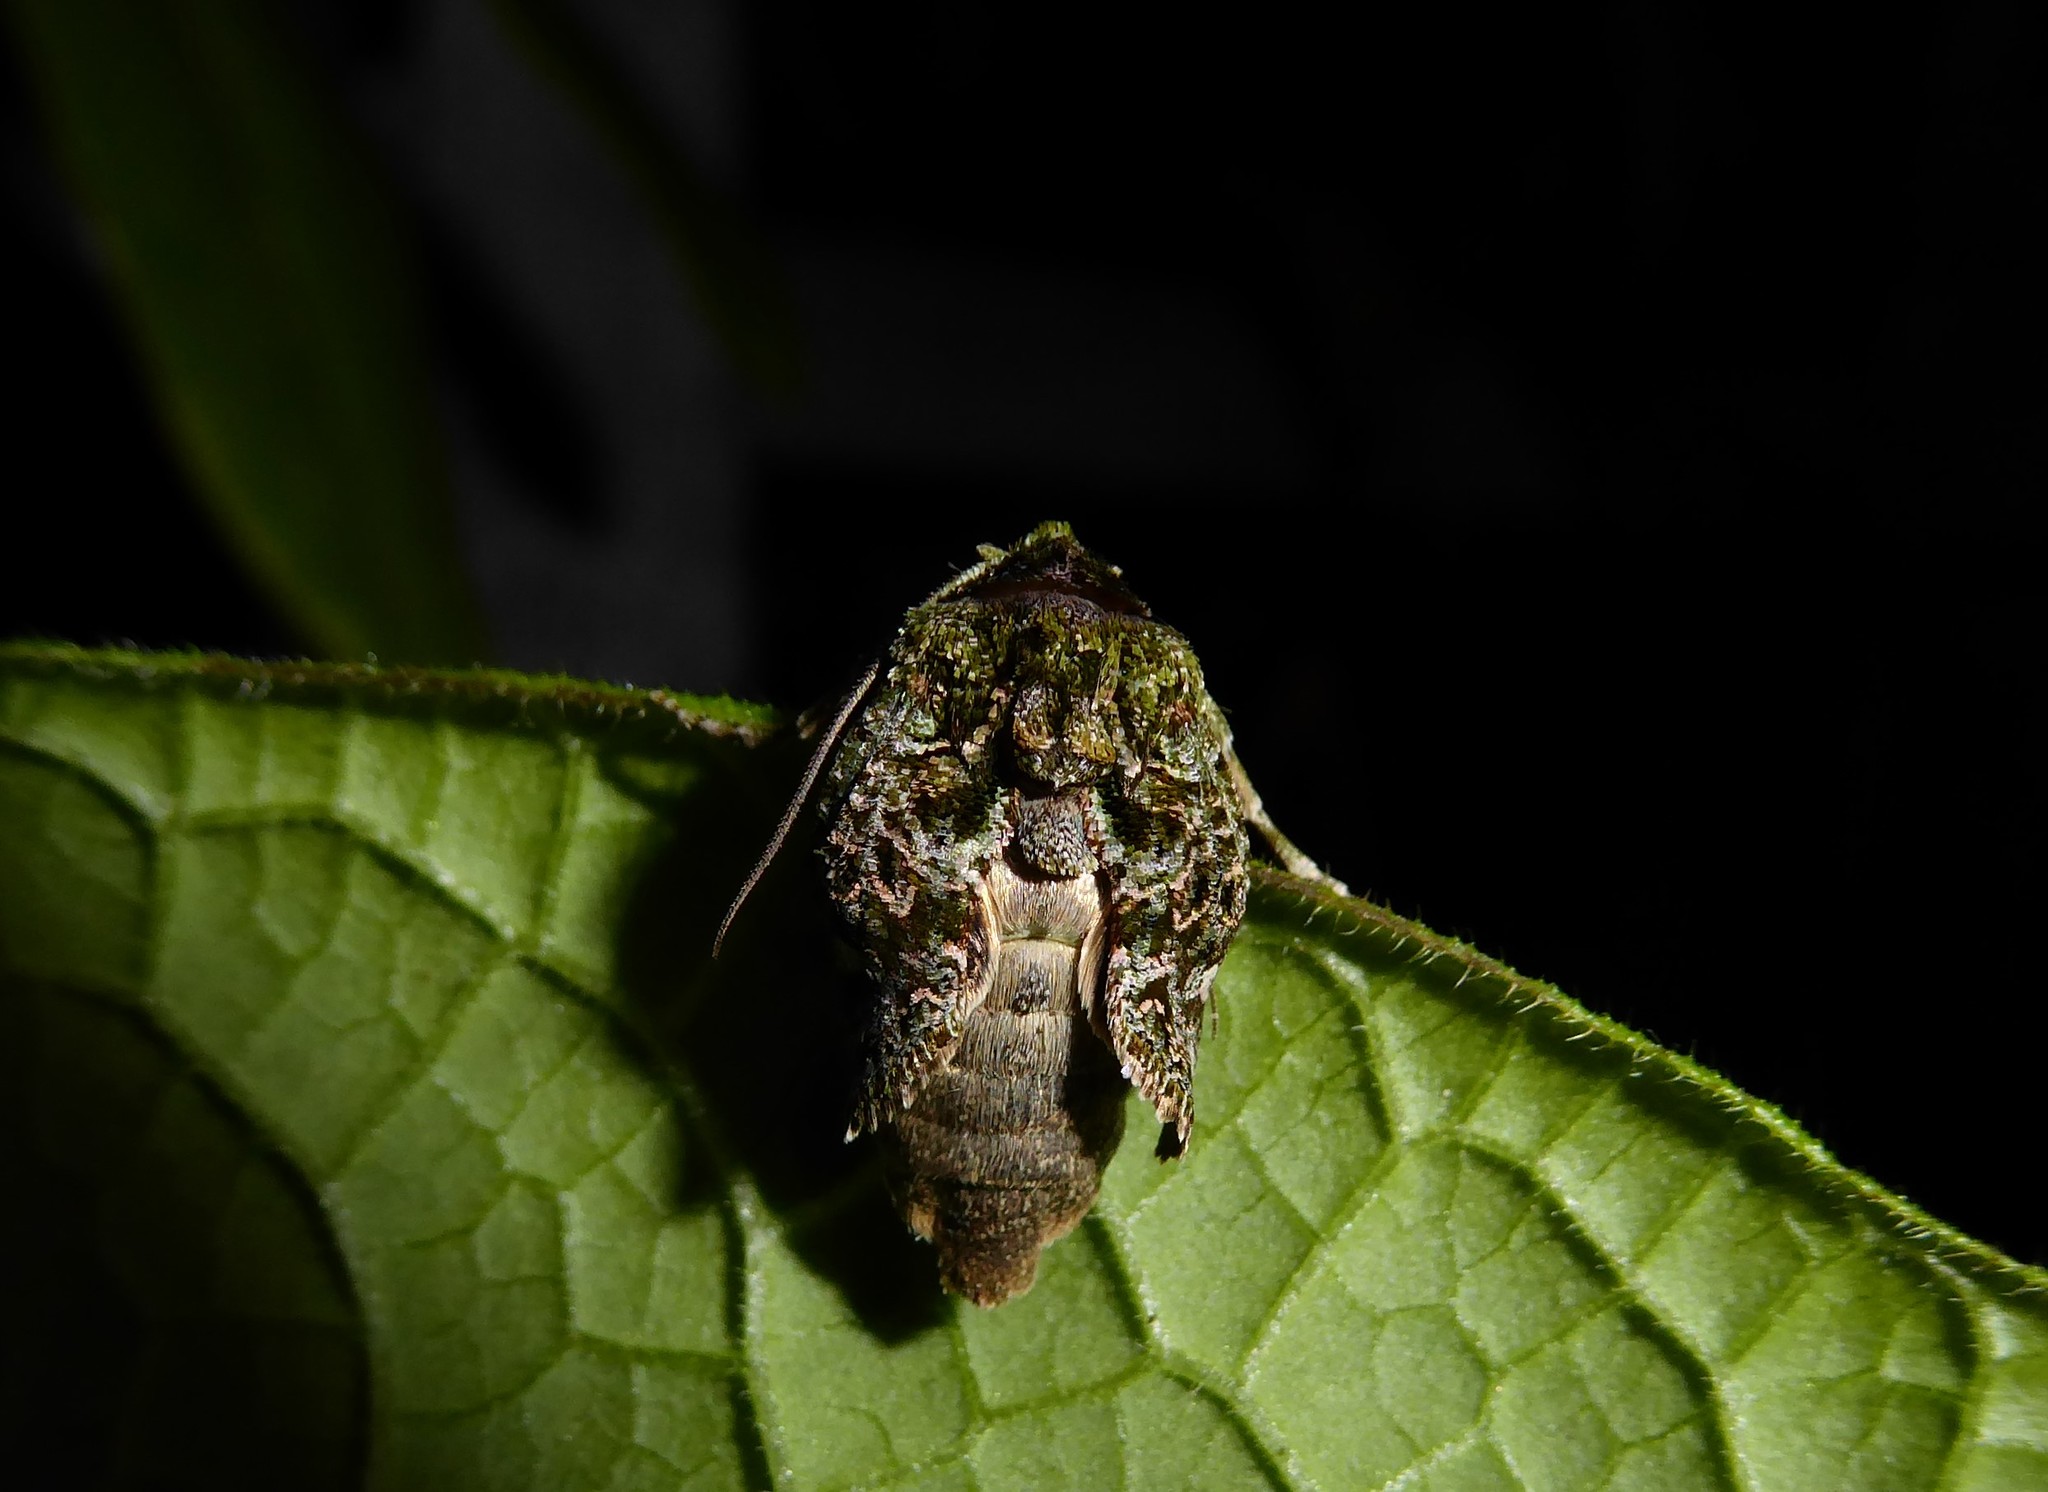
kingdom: Animalia
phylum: Arthropoda
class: Insecta
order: Lepidoptera
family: Noctuidae
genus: Ichneutica
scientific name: Ichneutica
